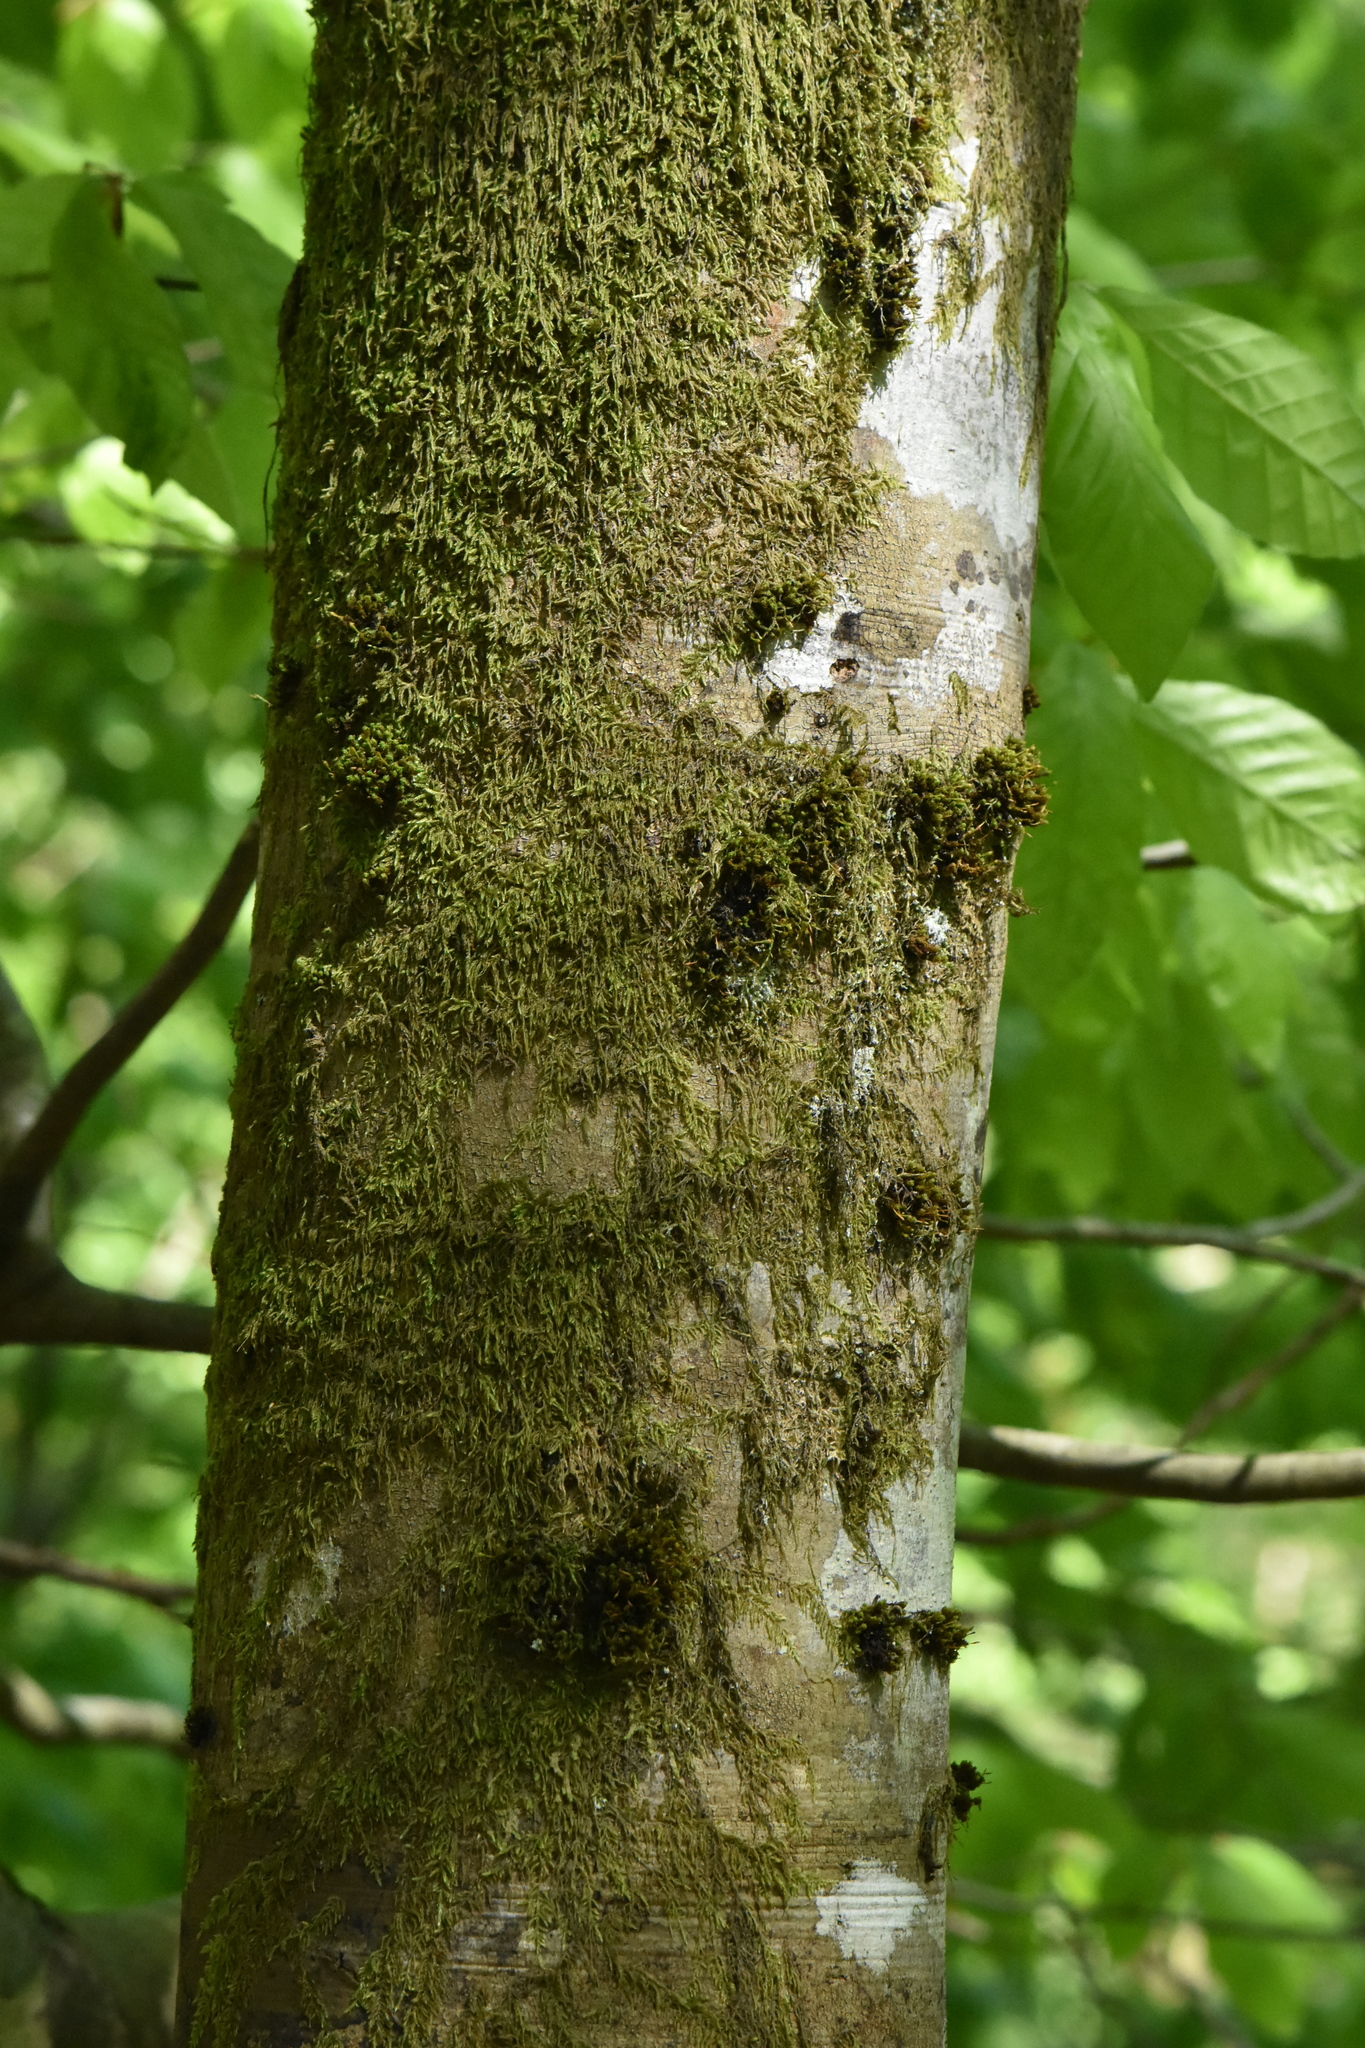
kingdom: Plantae
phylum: Tracheophyta
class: Magnoliopsida
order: Fagales
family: Fagaceae
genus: Fagus
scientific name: Fagus orientalis
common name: Oriental beech
